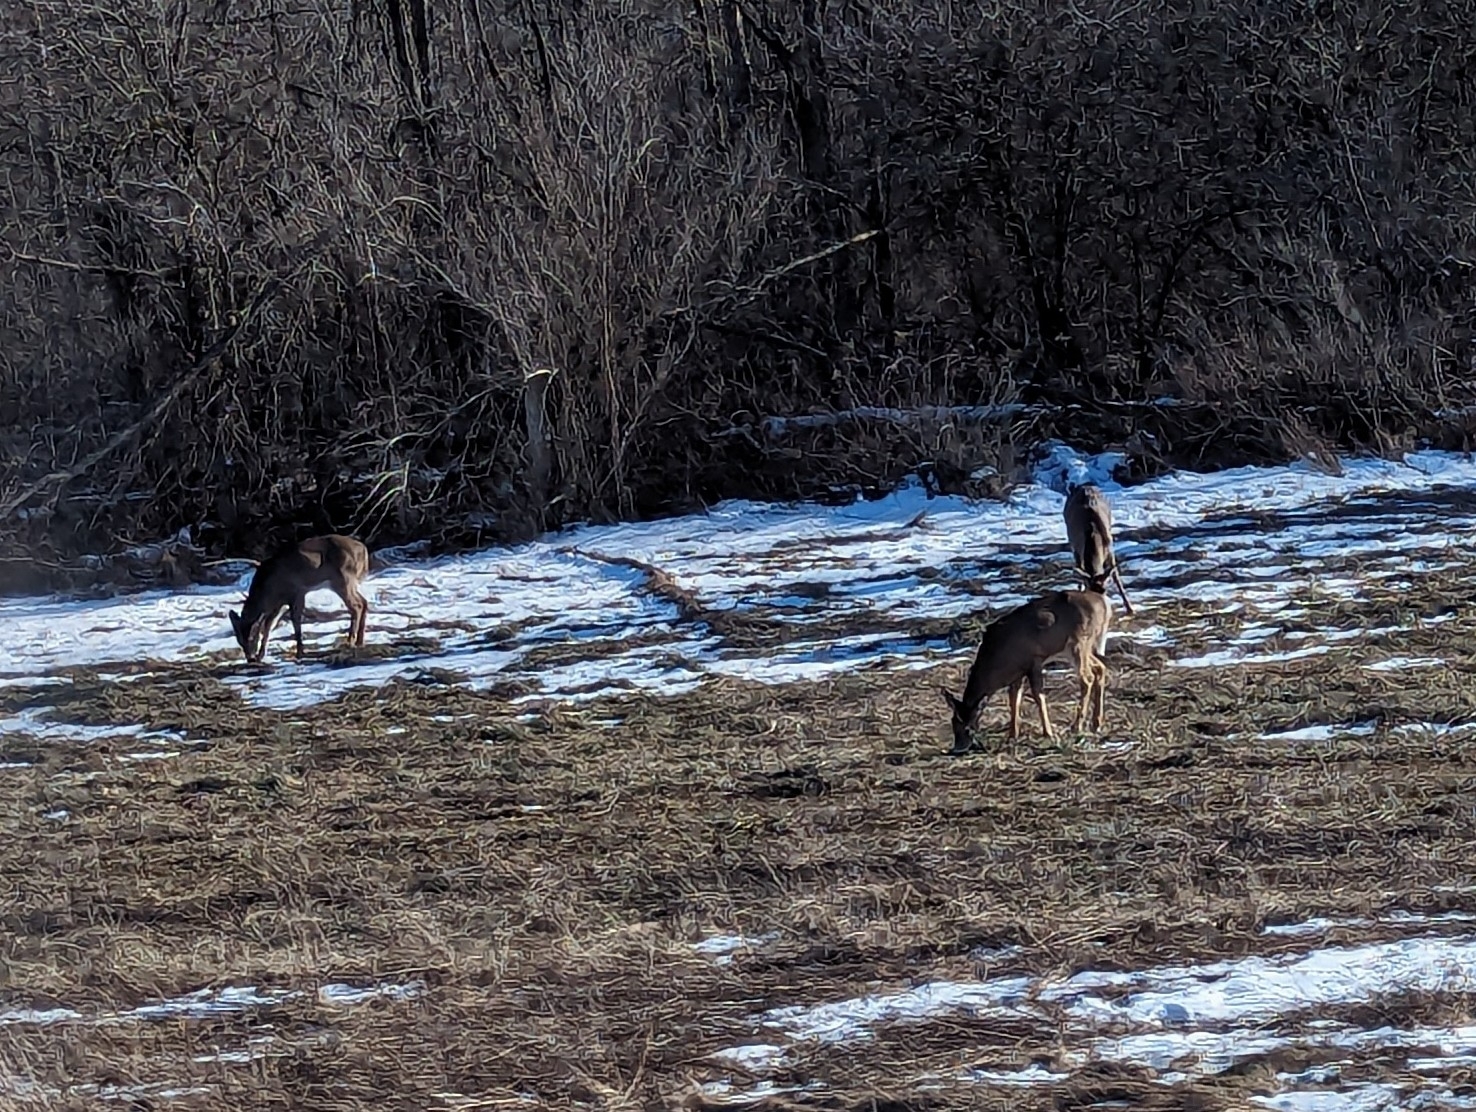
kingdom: Animalia
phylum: Chordata
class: Mammalia
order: Artiodactyla
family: Cervidae
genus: Odocoileus
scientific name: Odocoileus virginianus
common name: White-tailed deer
